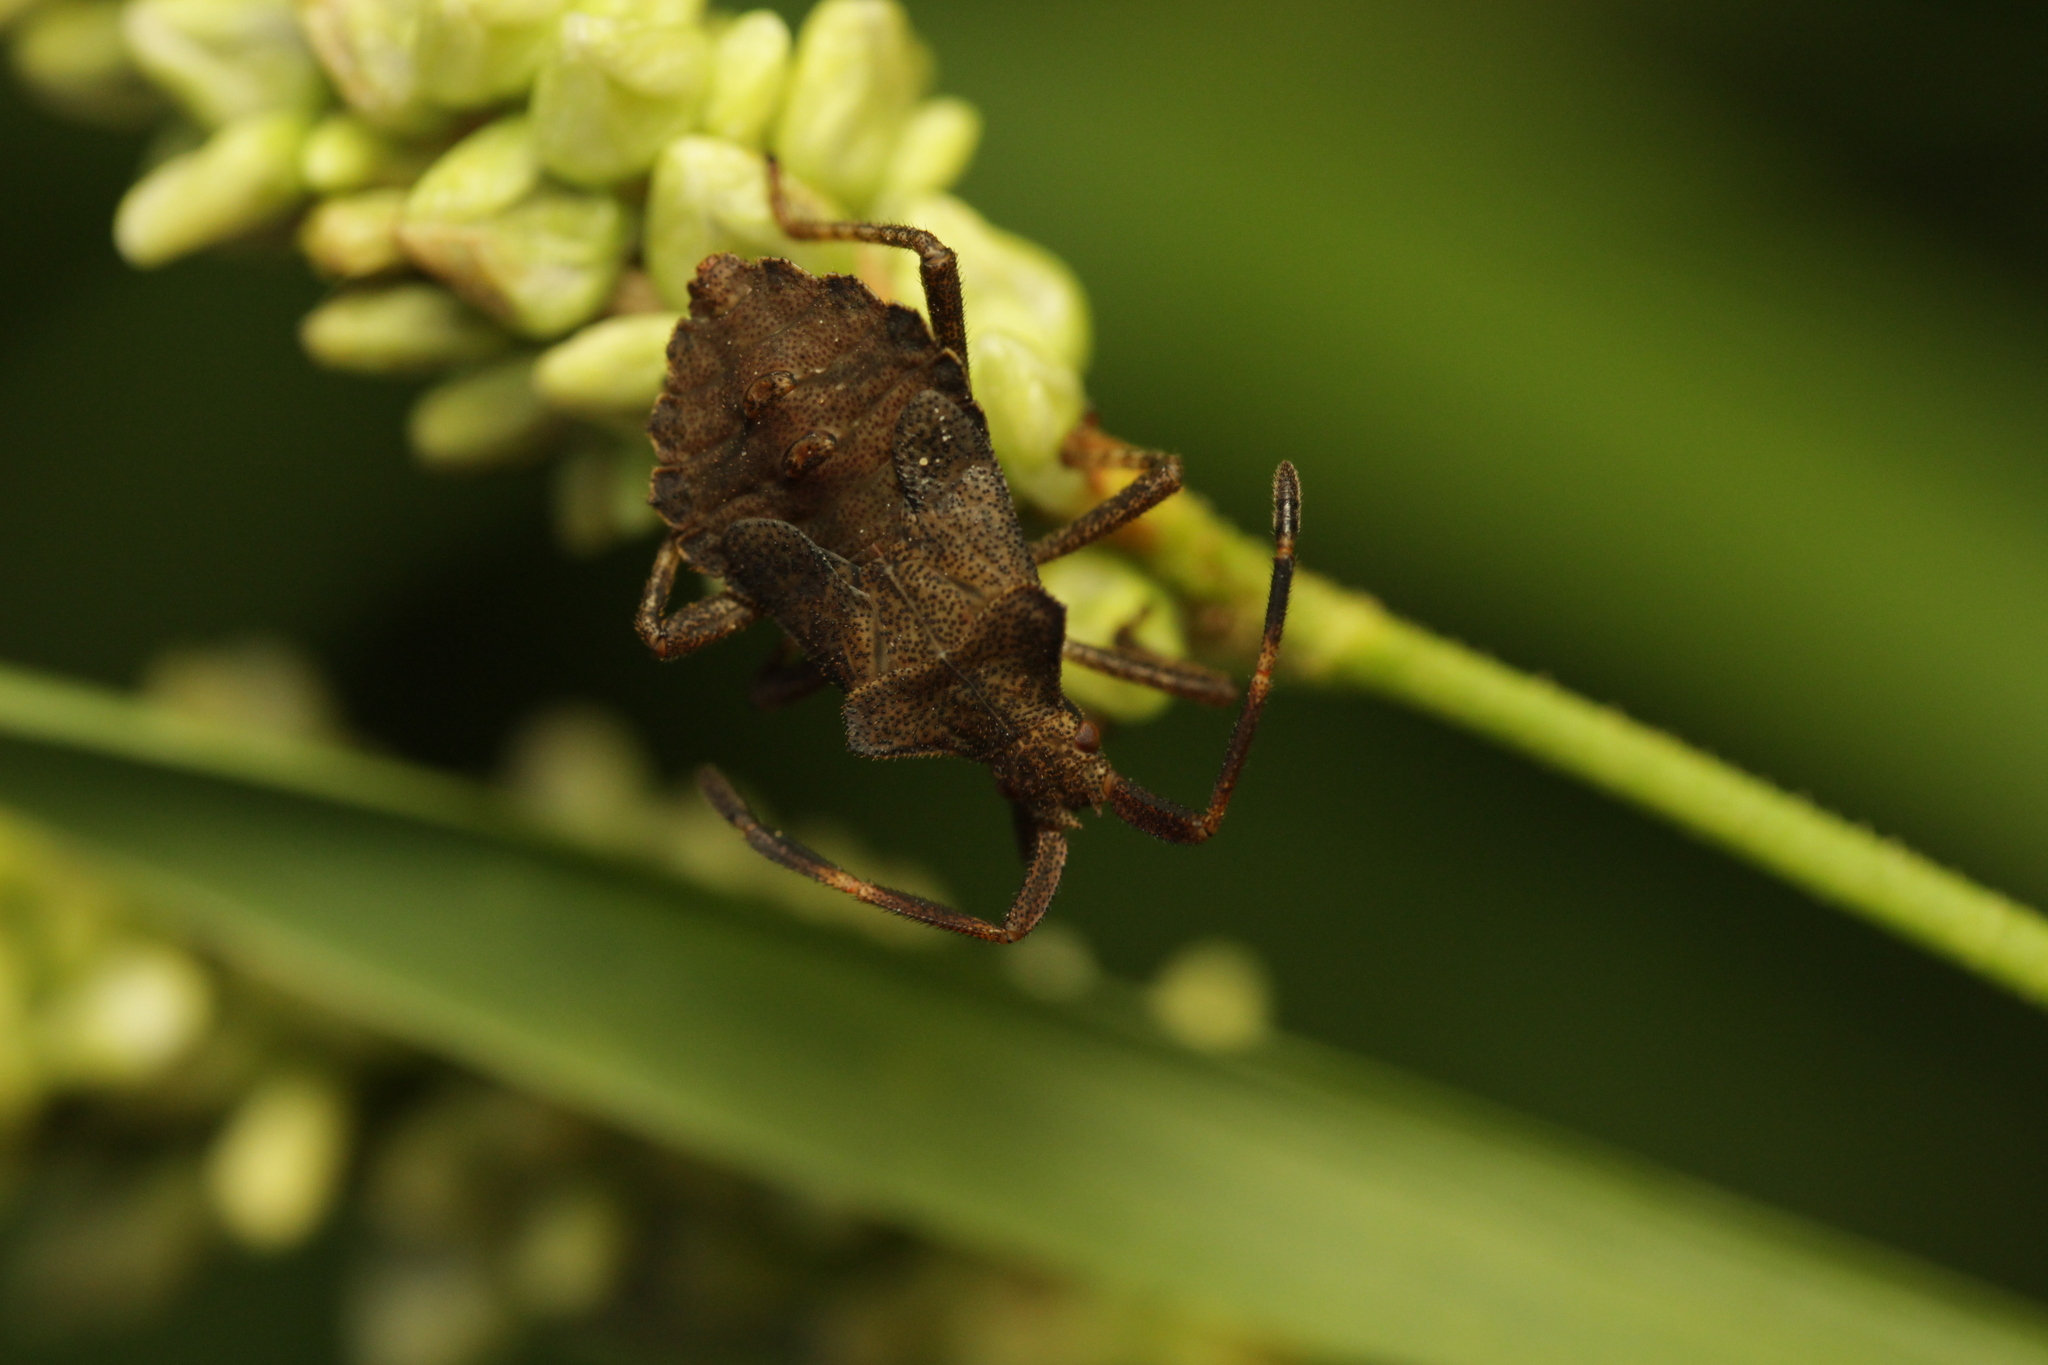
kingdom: Animalia
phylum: Arthropoda
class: Insecta
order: Hemiptera
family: Coreidae
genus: Coreus
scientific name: Coreus marginatus
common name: Dock bug
